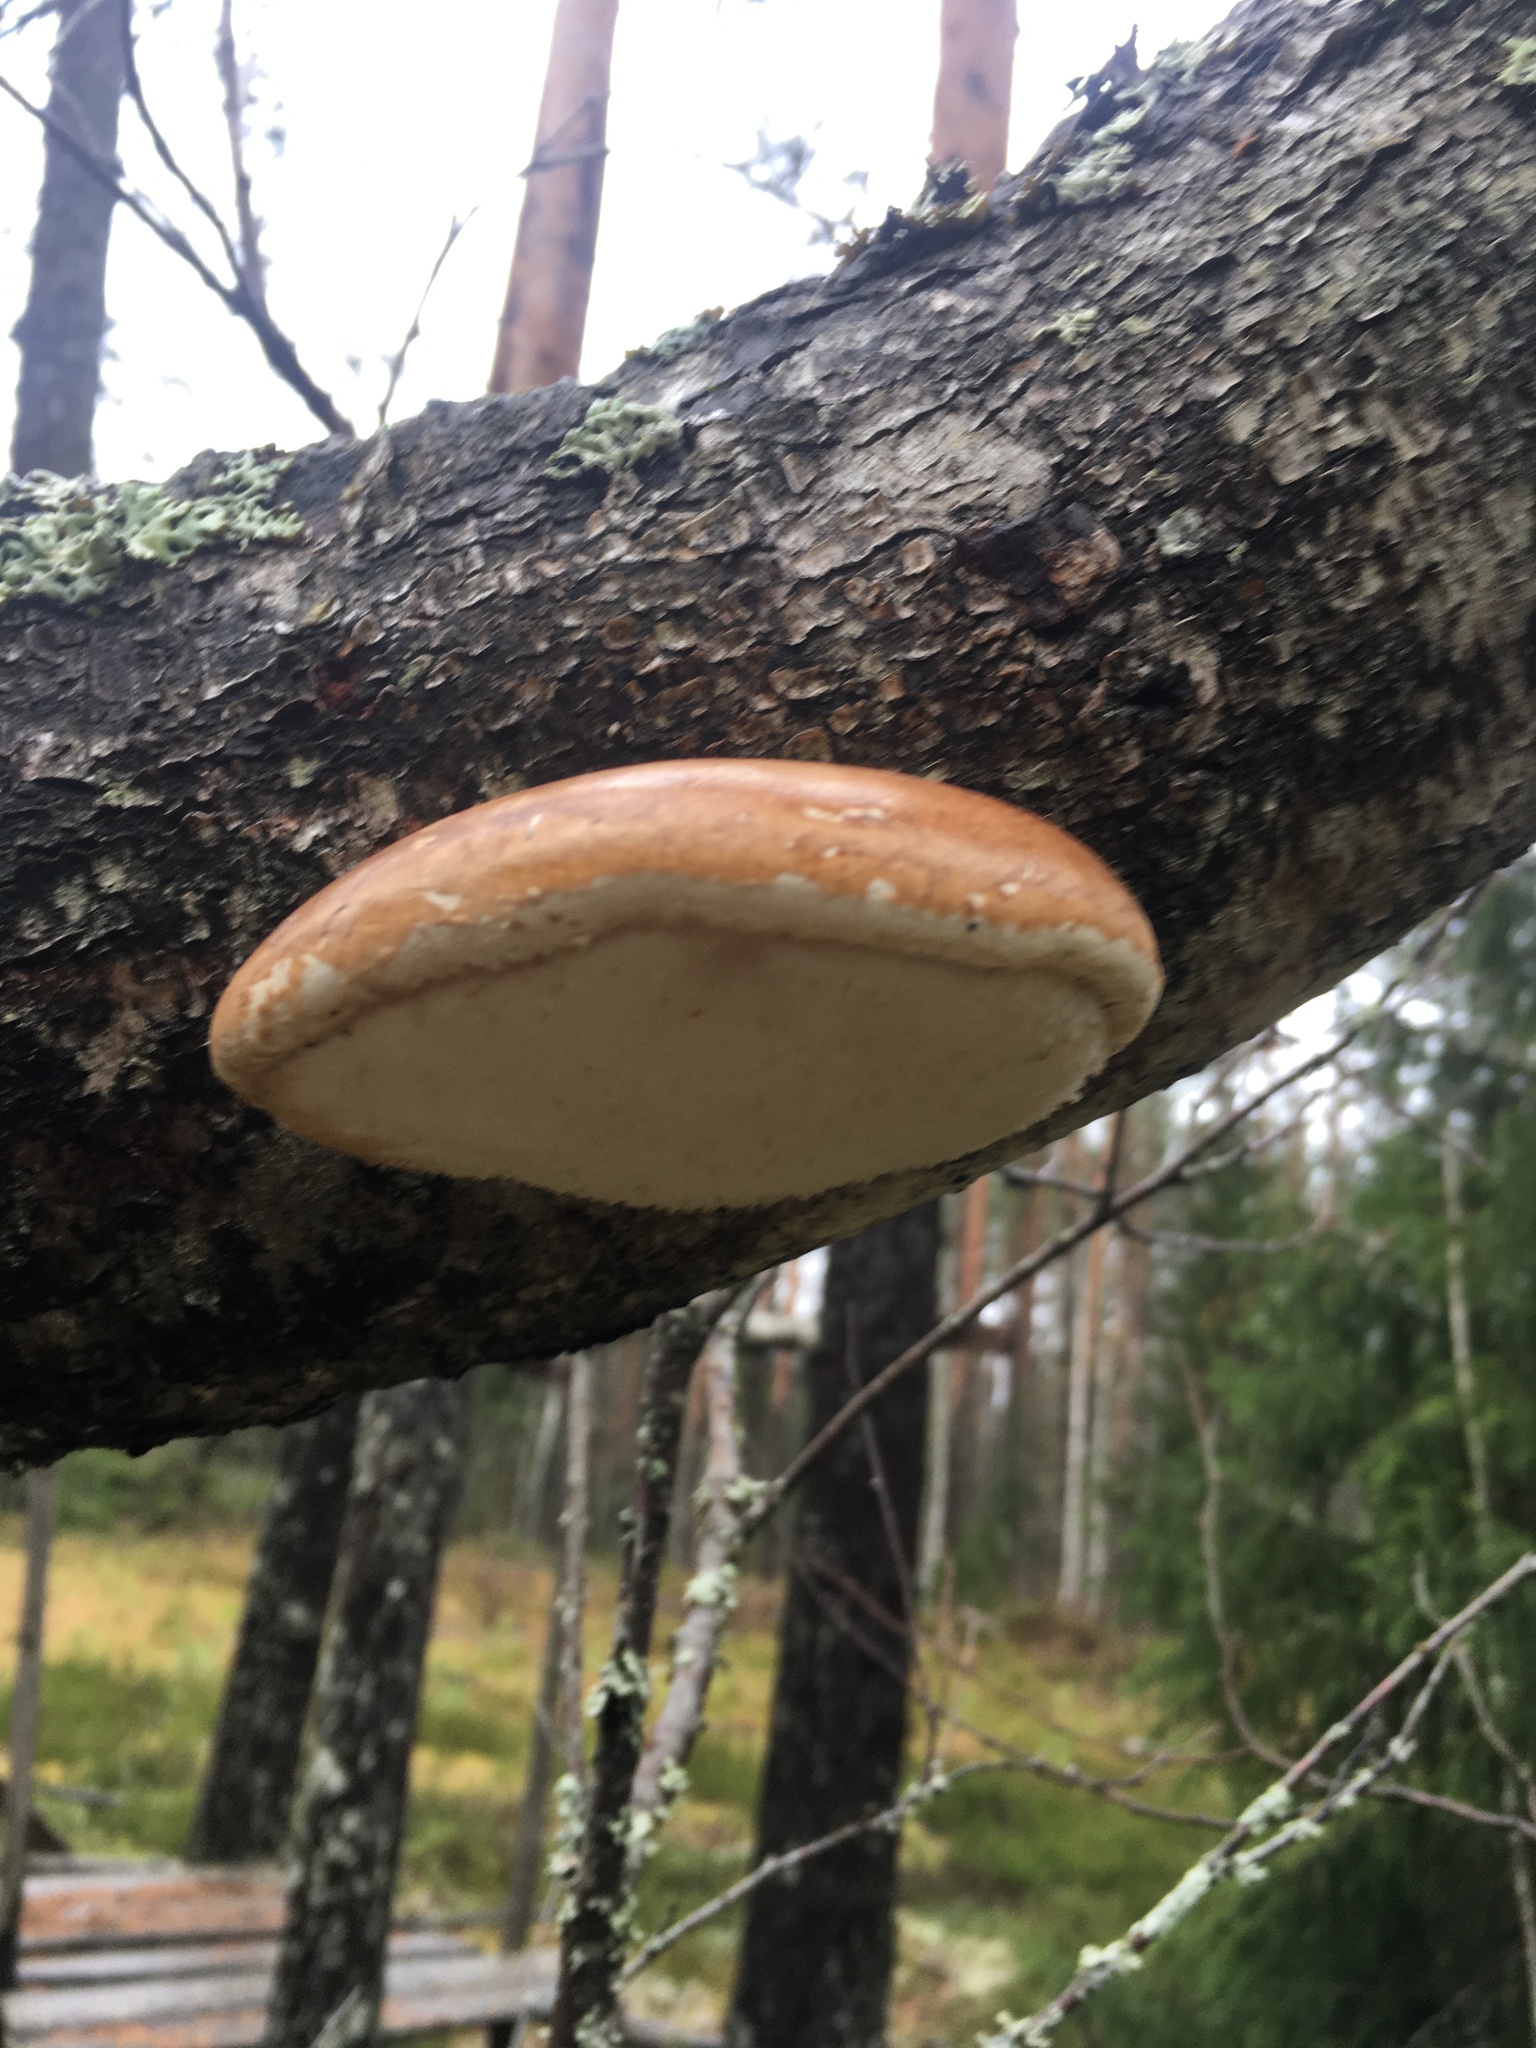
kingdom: Fungi
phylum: Basidiomycota
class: Agaricomycetes
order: Polyporales
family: Fomitopsidaceae
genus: Fomitopsis
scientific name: Fomitopsis betulina
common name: Birch polypore
